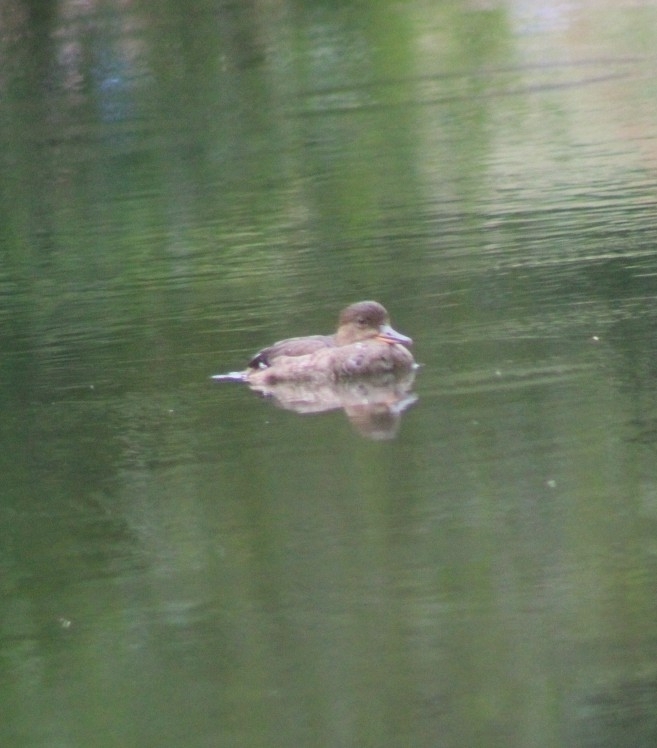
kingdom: Animalia
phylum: Chordata
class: Aves
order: Anseriformes
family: Anatidae
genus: Lophodytes
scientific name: Lophodytes cucullatus
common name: Hooded merganser
